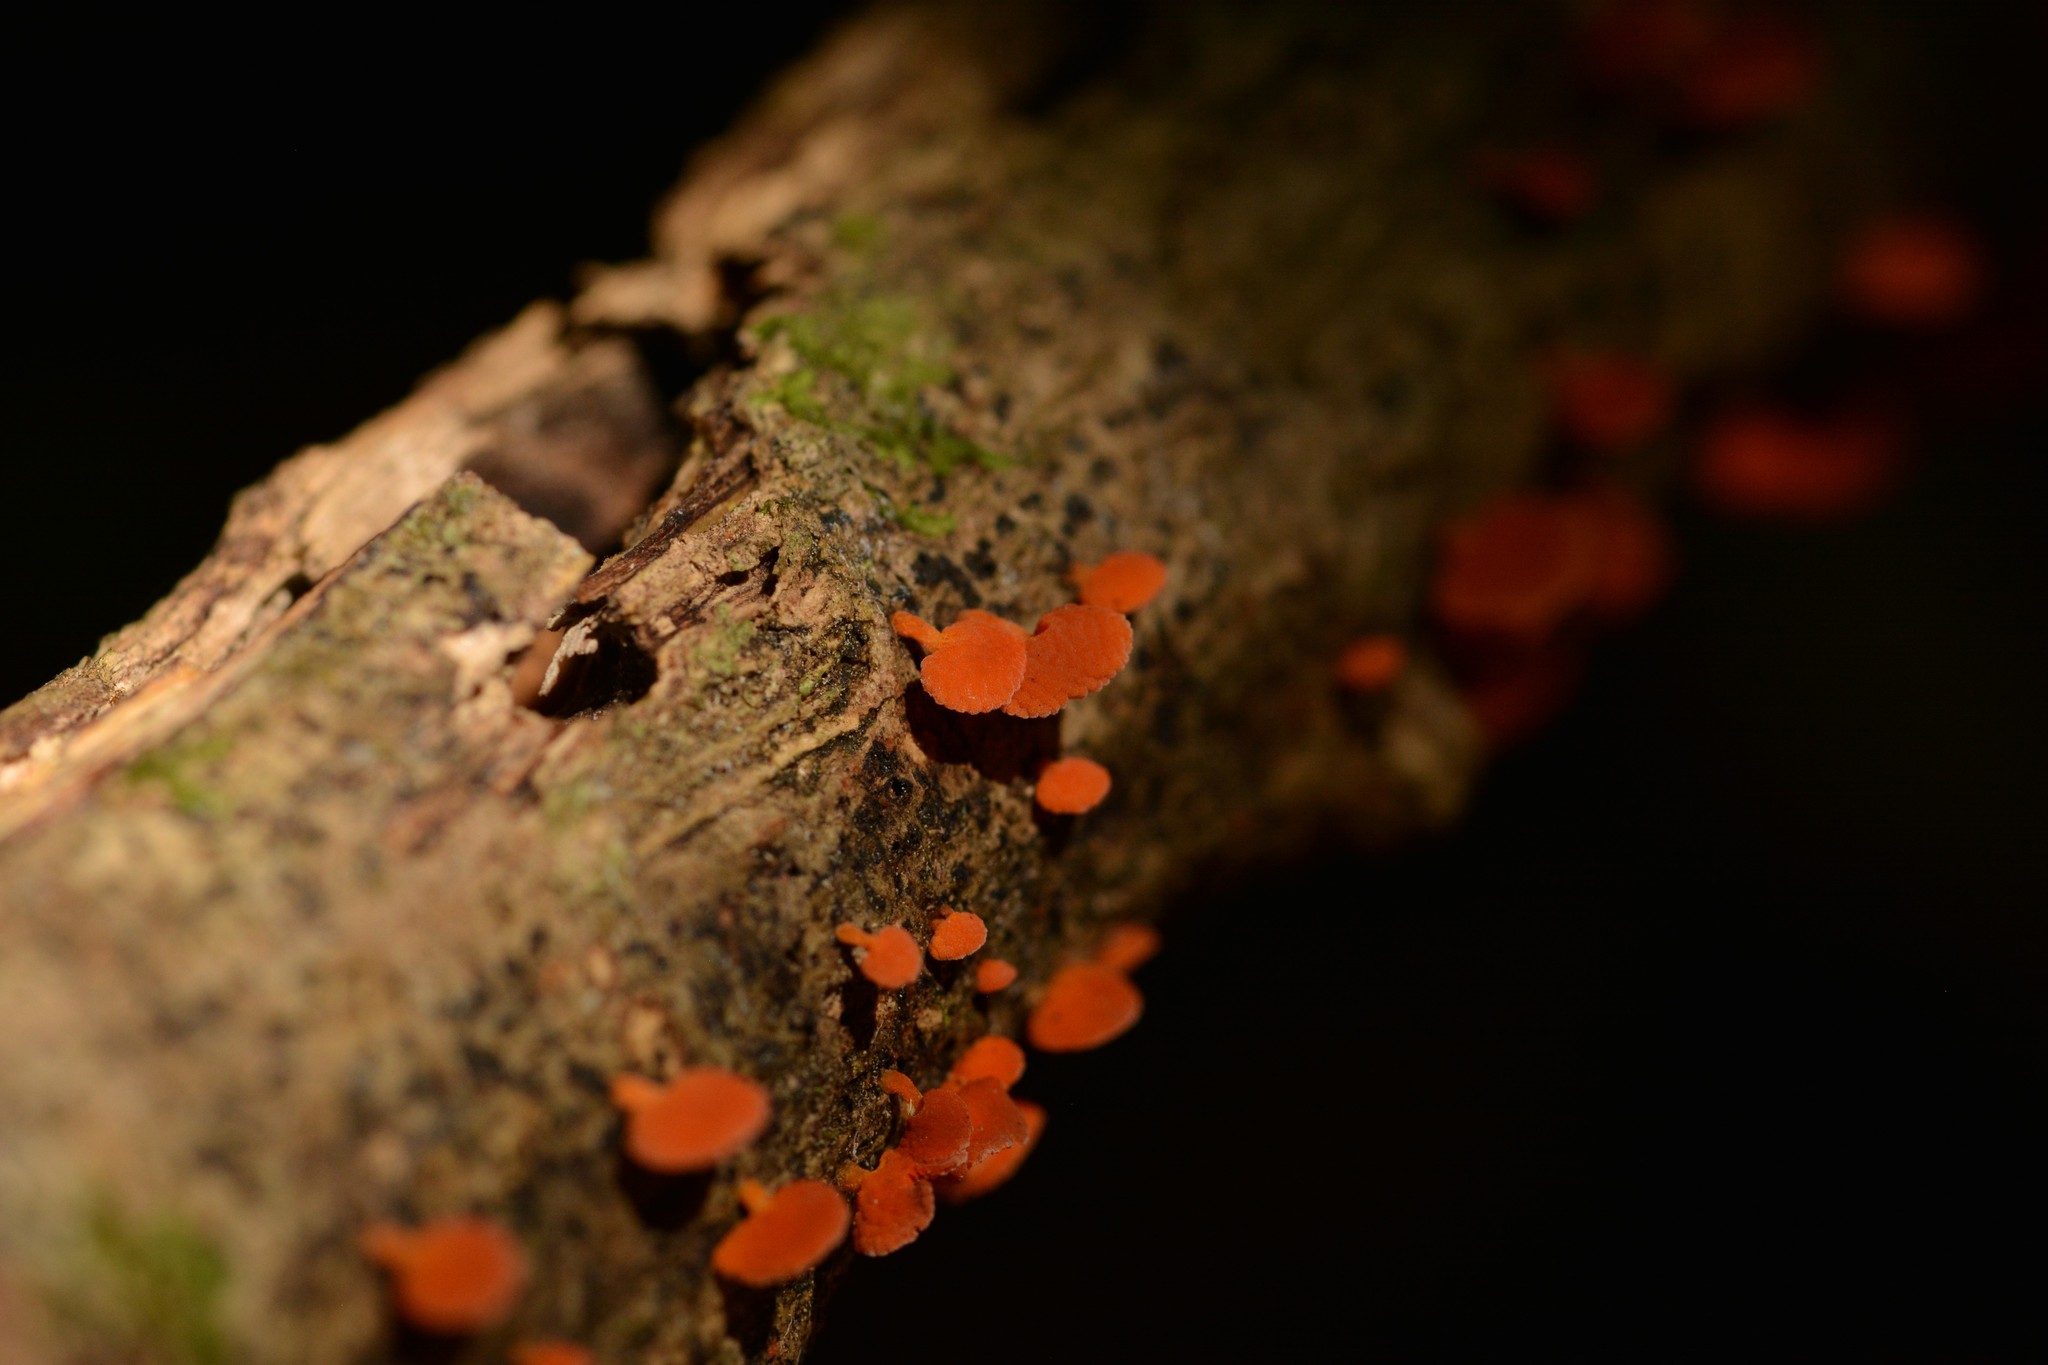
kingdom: Fungi
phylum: Basidiomycota
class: Agaricomycetes
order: Agaricales
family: Mycenaceae
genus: Favolaschia
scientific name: Favolaschia claudopus
